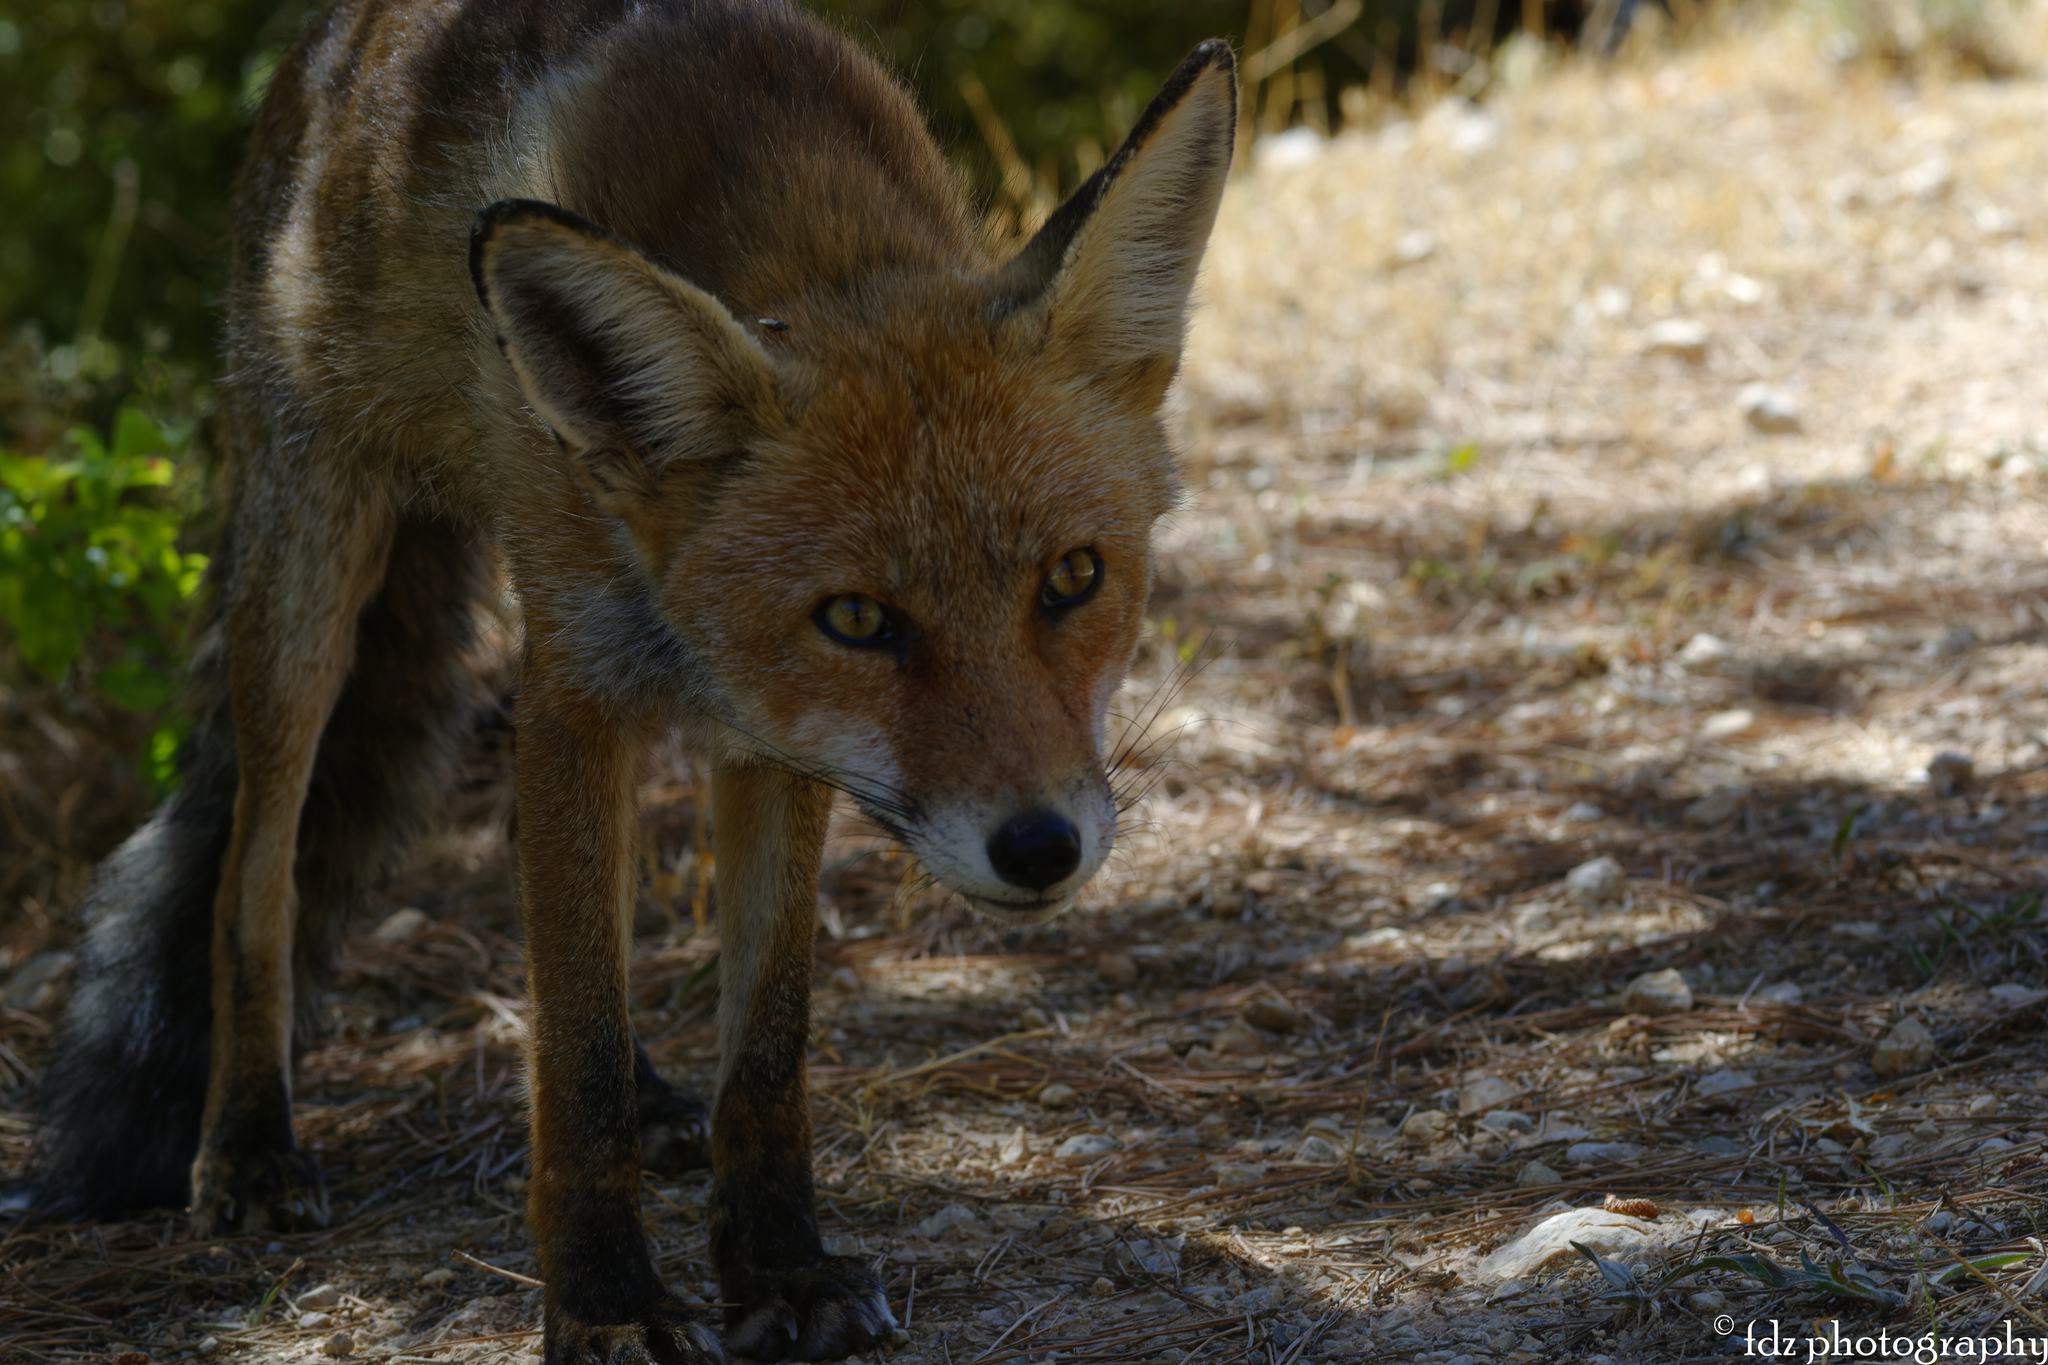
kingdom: Animalia
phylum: Chordata
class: Mammalia
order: Carnivora
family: Canidae
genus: Vulpes
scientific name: Vulpes vulpes
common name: Red fox
